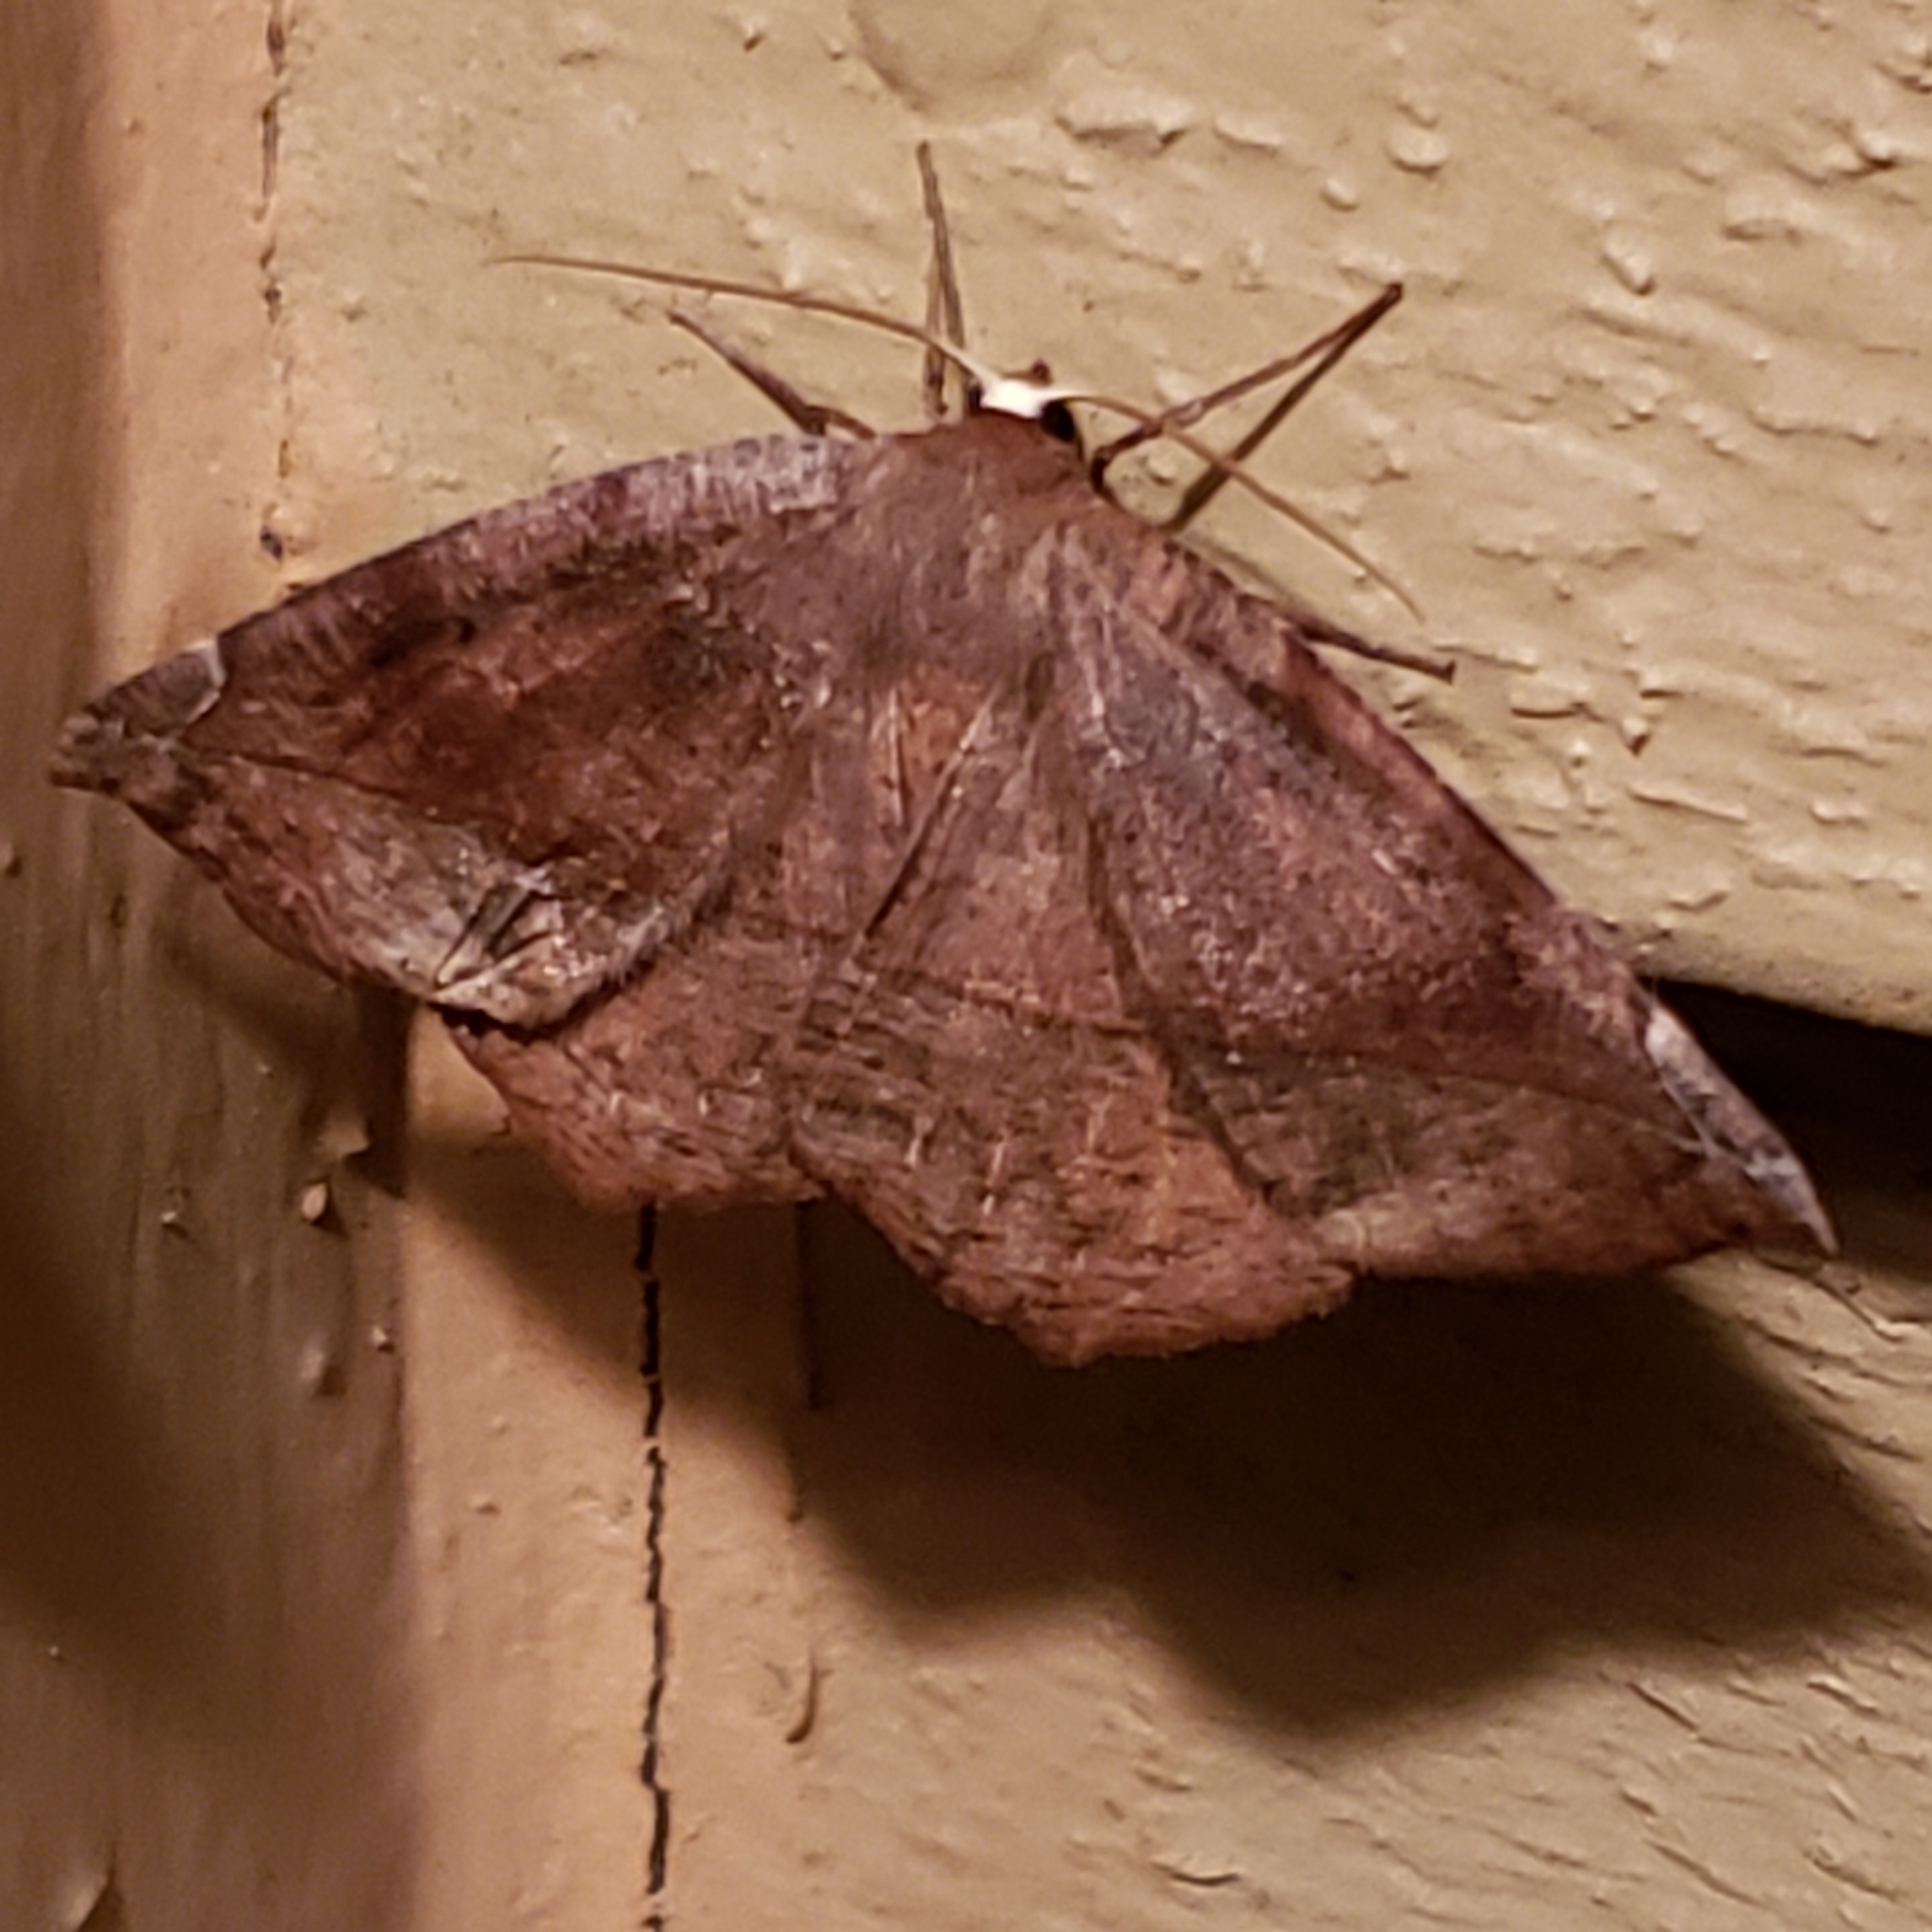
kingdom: Animalia
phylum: Arthropoda
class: Insecta
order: Lepidoptera
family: Geometridae
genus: Eutrapela
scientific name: Eutrapela clemataria
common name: Curved-toothed geometer
